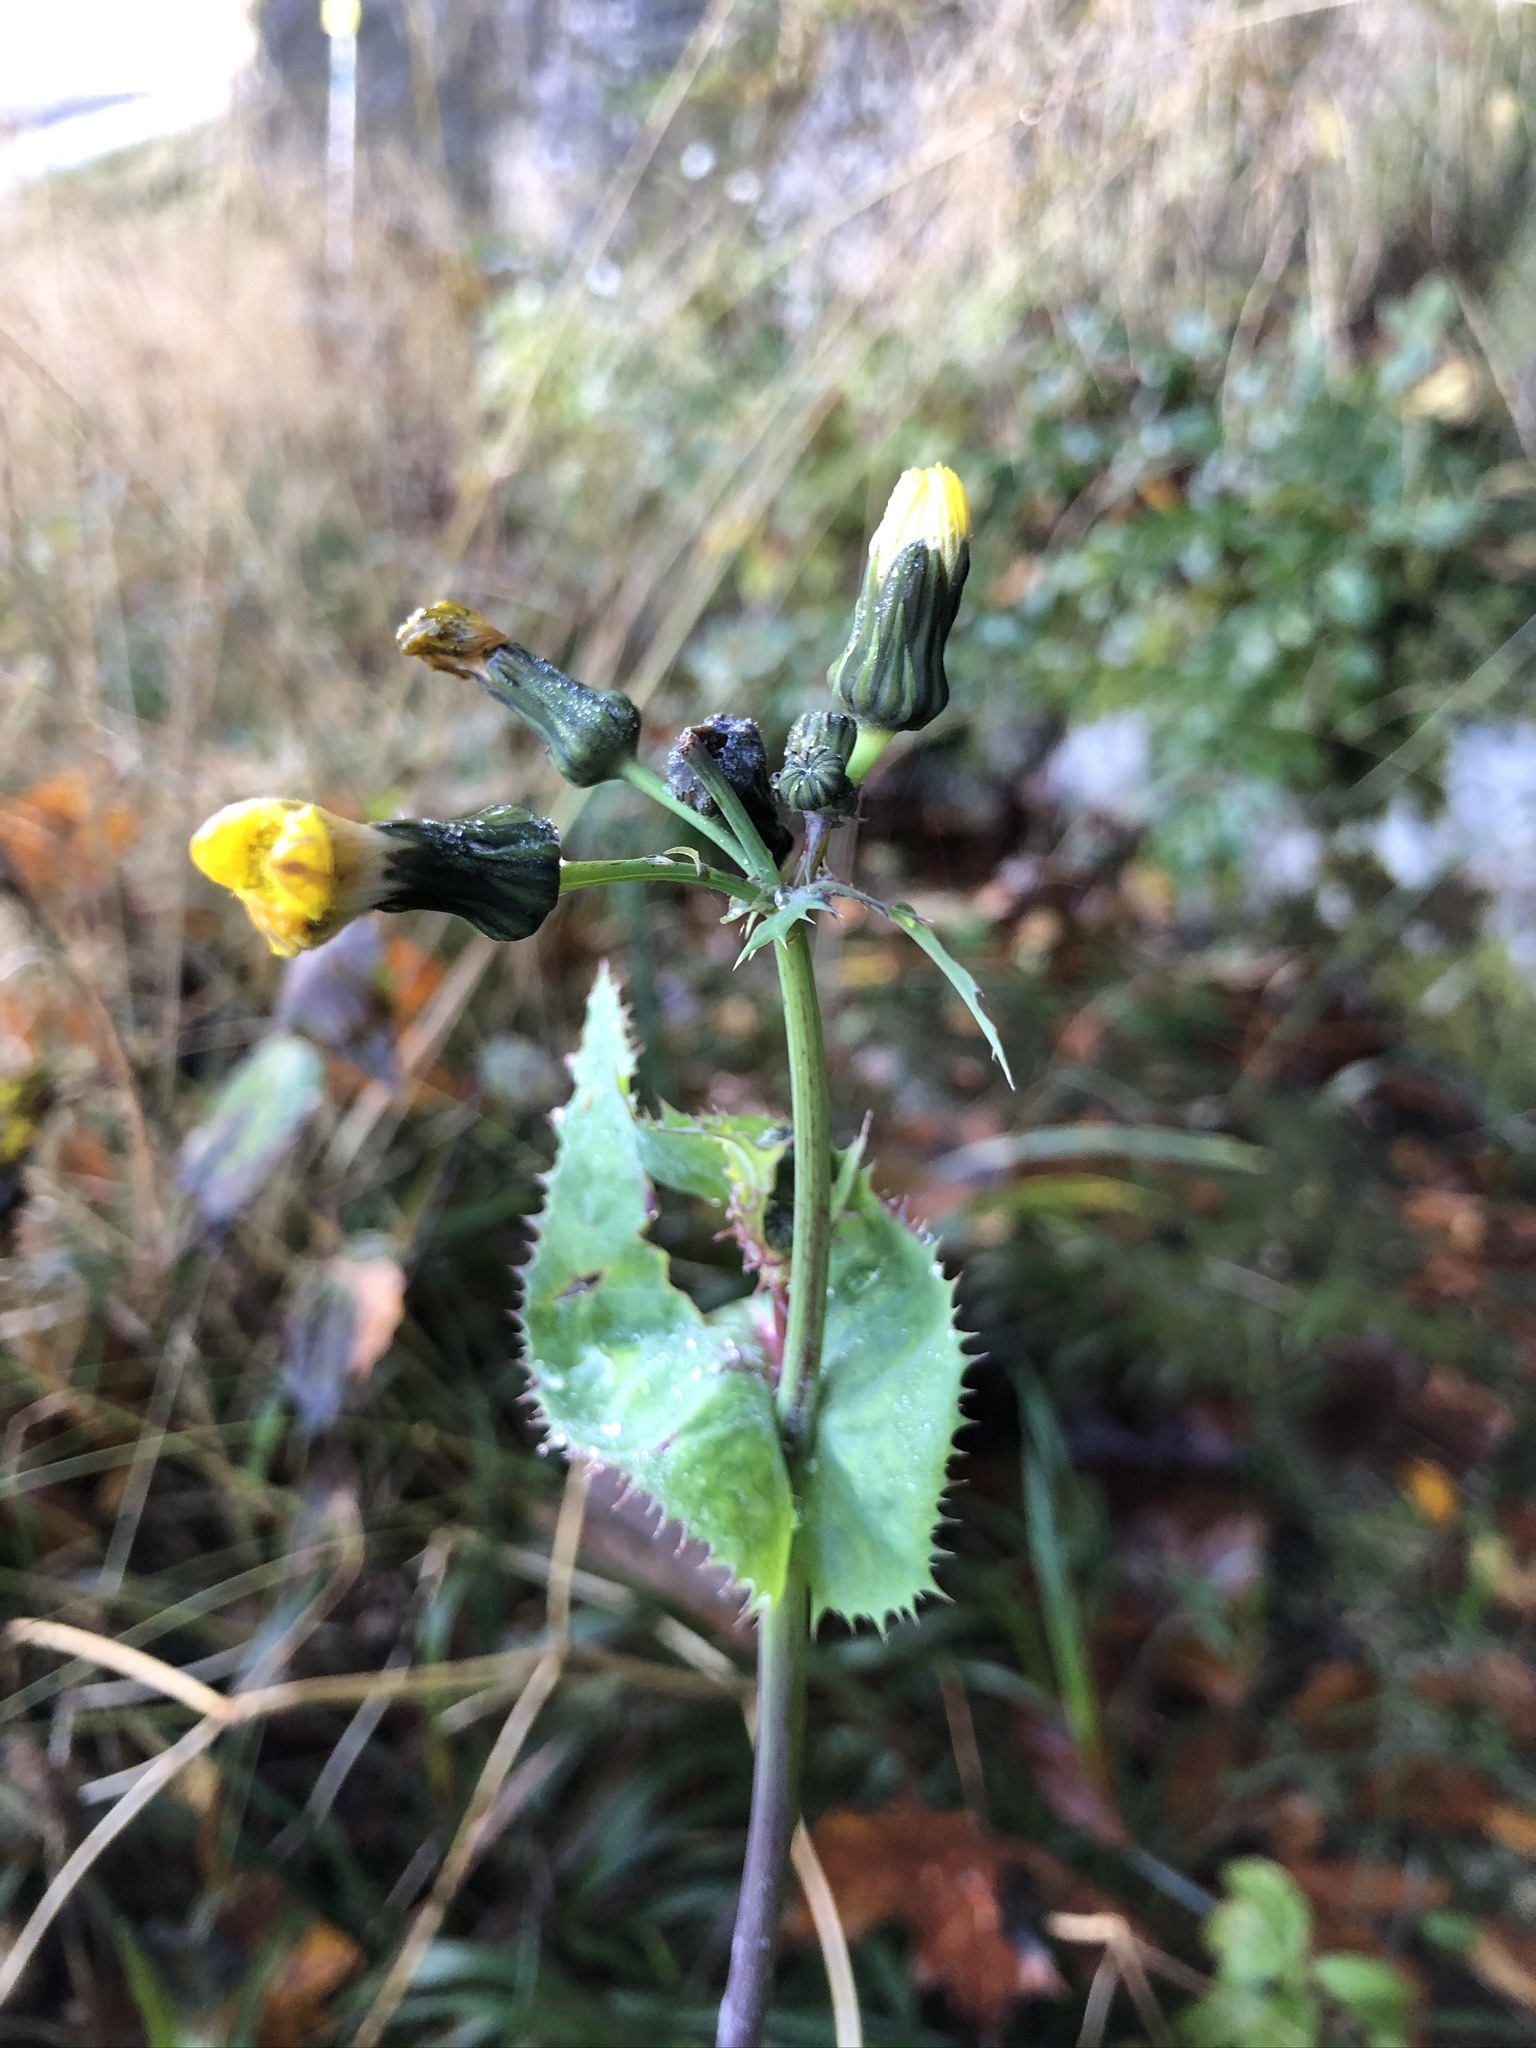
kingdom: Plantae
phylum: Tracheophyta
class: Magnoliopsida
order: Asterales
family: Asteraceae
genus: Sonchus
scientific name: Sonchus asper
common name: Prickly sow-thistle
